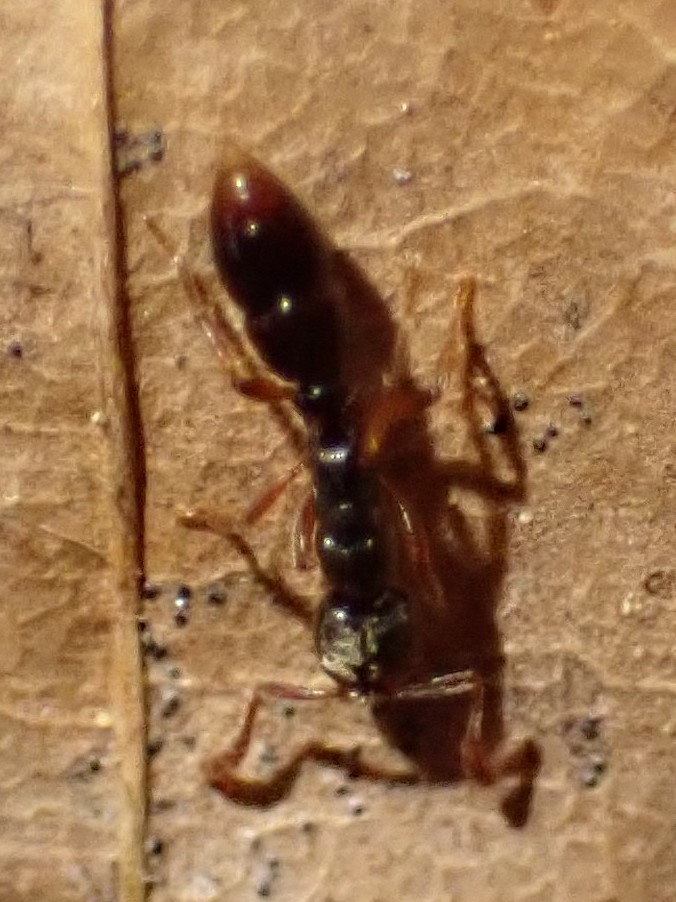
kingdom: Animalia
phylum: Arthropoda
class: Insecta
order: Hymenoptera
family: Formicidae
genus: Ponera
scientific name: Ponera
